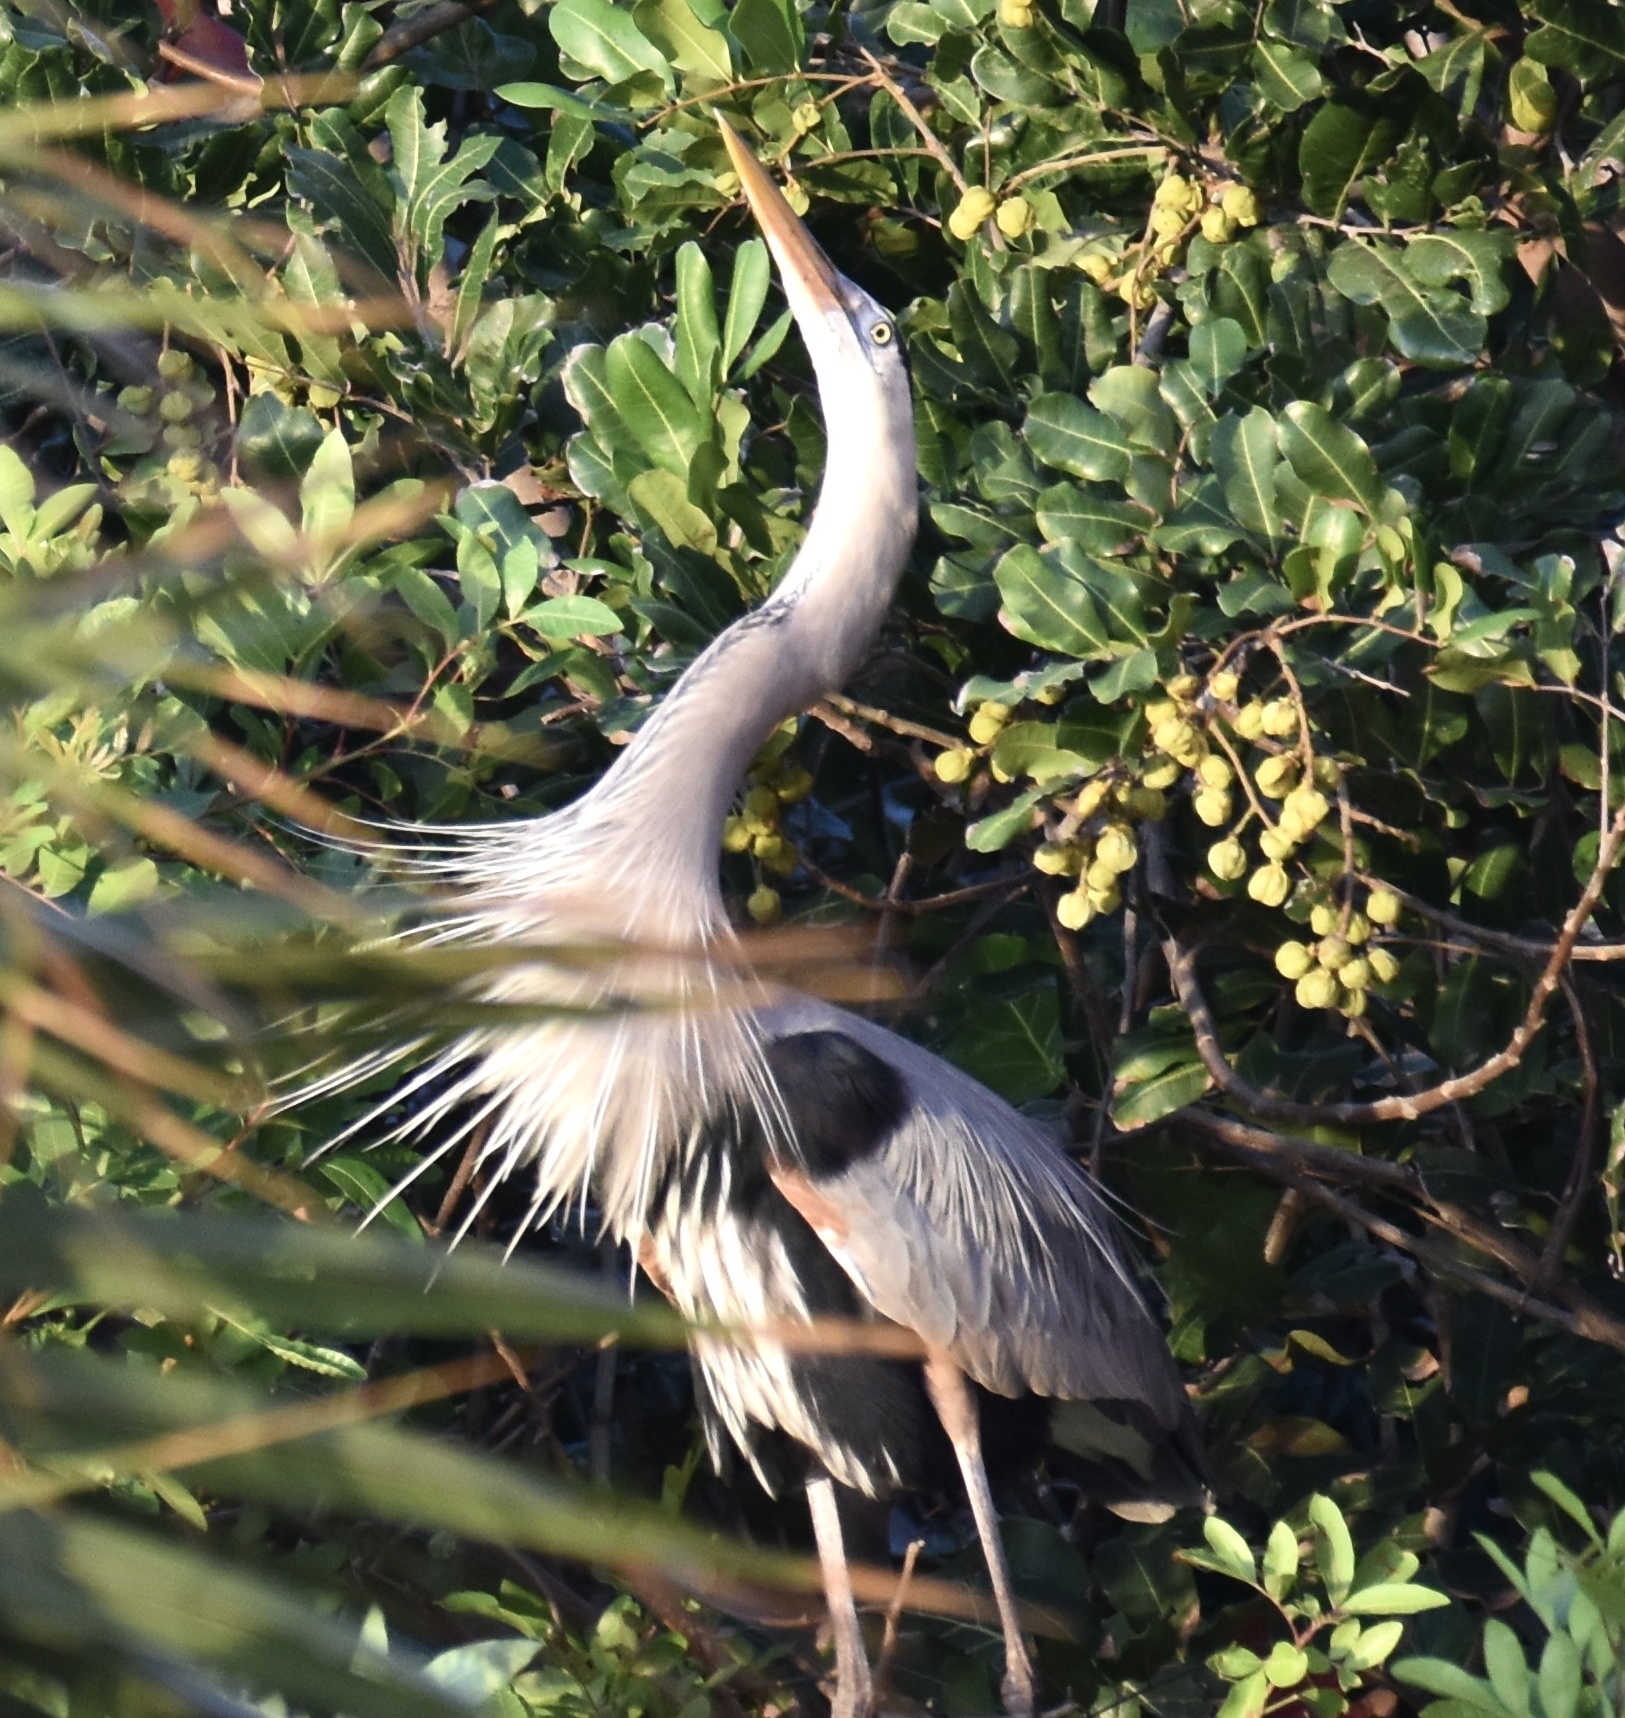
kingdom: Animalia
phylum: Chordata
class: Aves
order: Pelecaniformes
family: Ardeidae
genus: Ardea
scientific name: Ardea herodias
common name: Great blue heron
